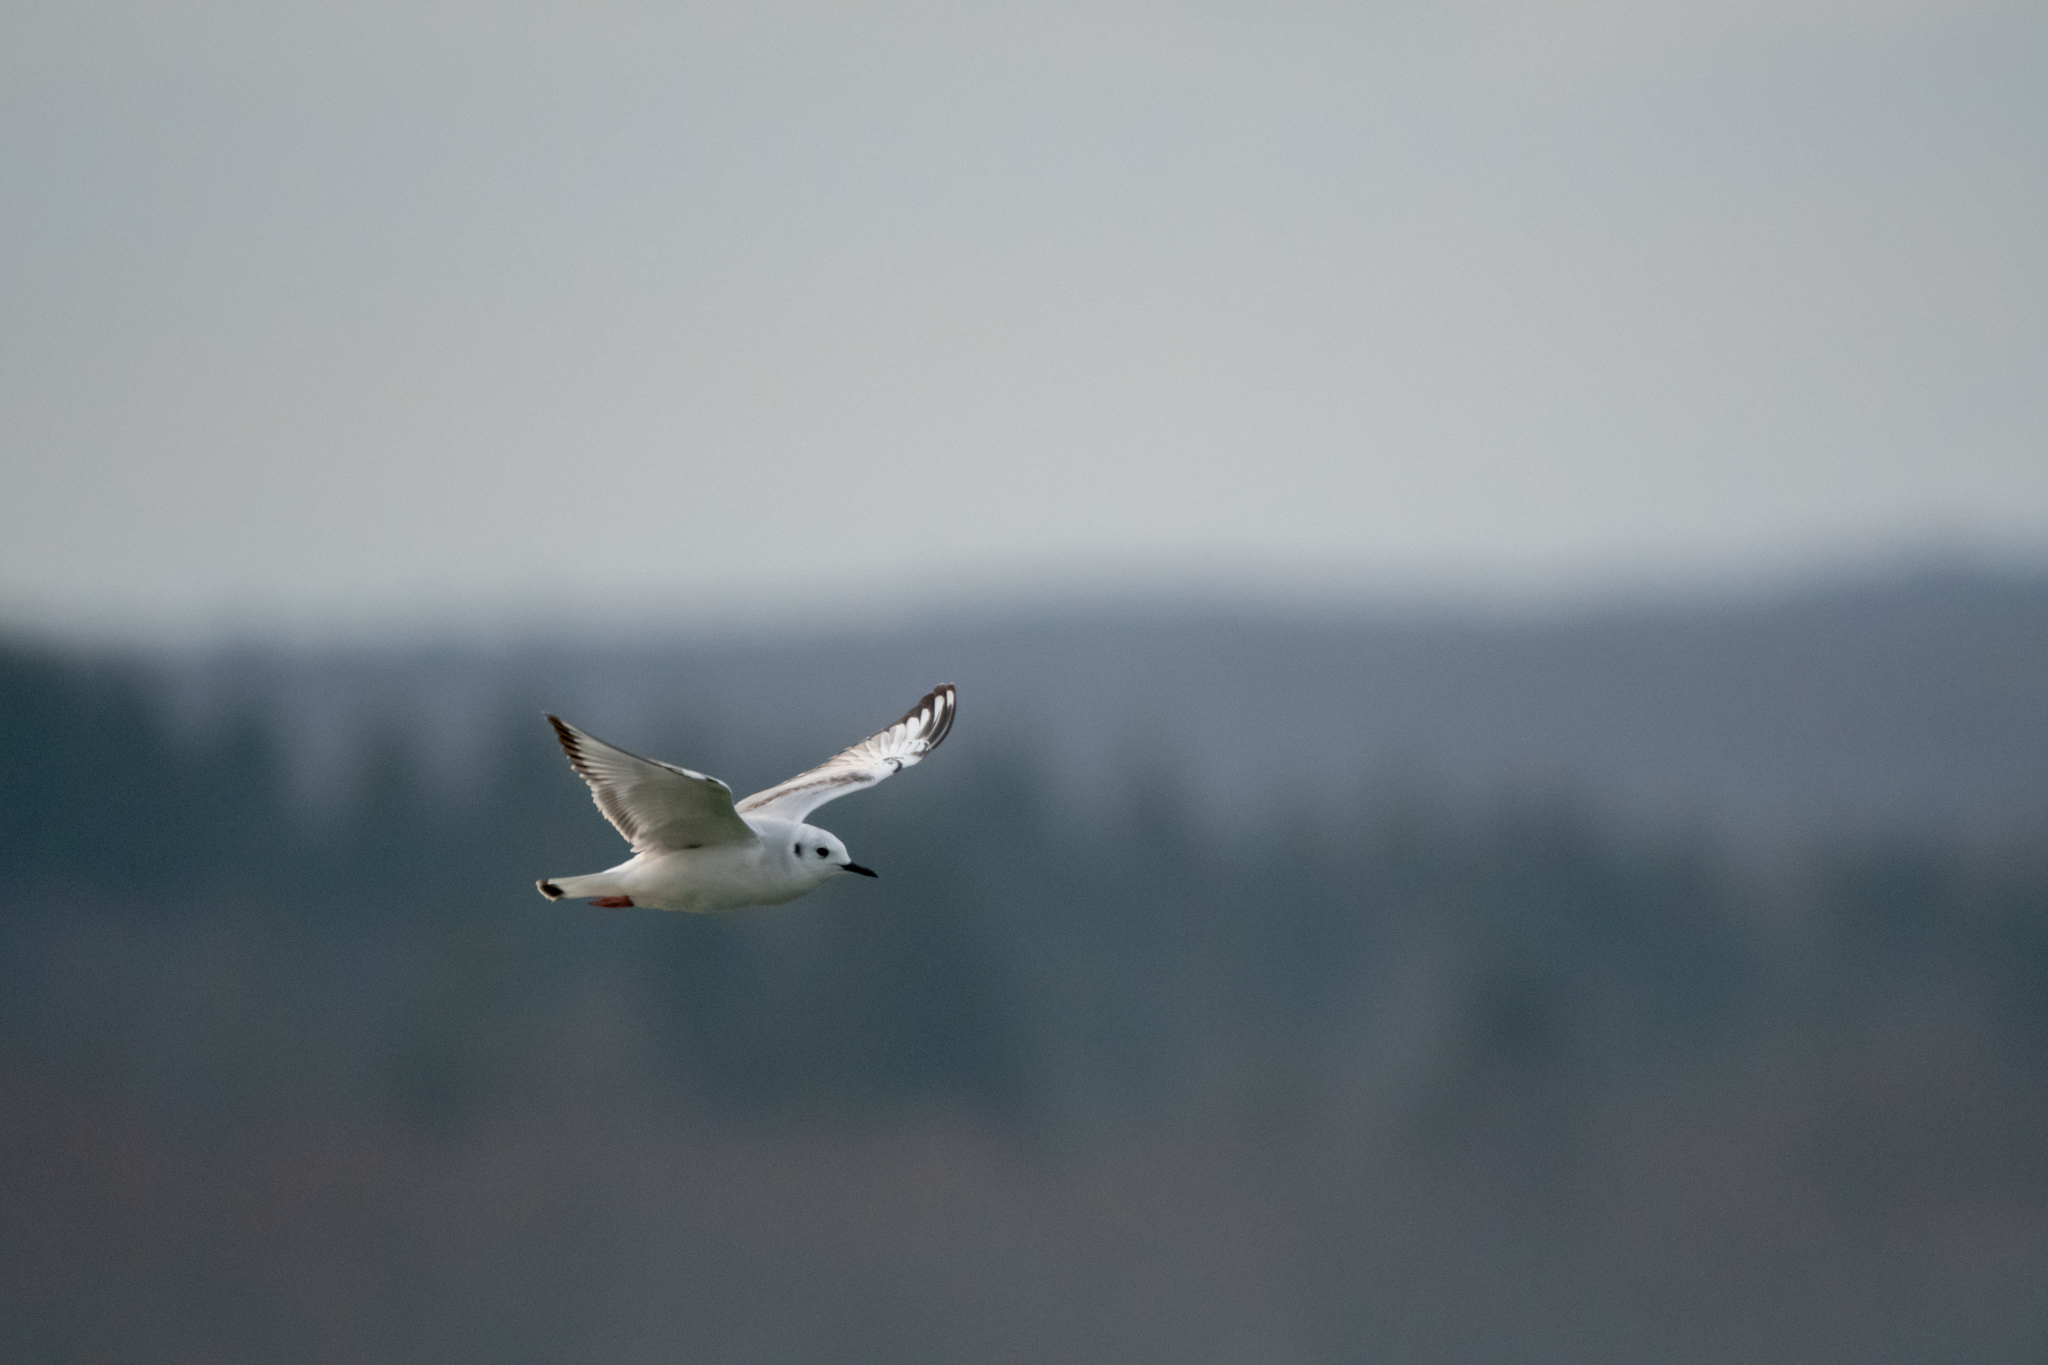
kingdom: Animalia
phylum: Chordata
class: Aves
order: Charadriiformes
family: Laridae
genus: Chroicocephalus
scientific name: Chroicocephalus philadelphia
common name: Bonaparte's gull
